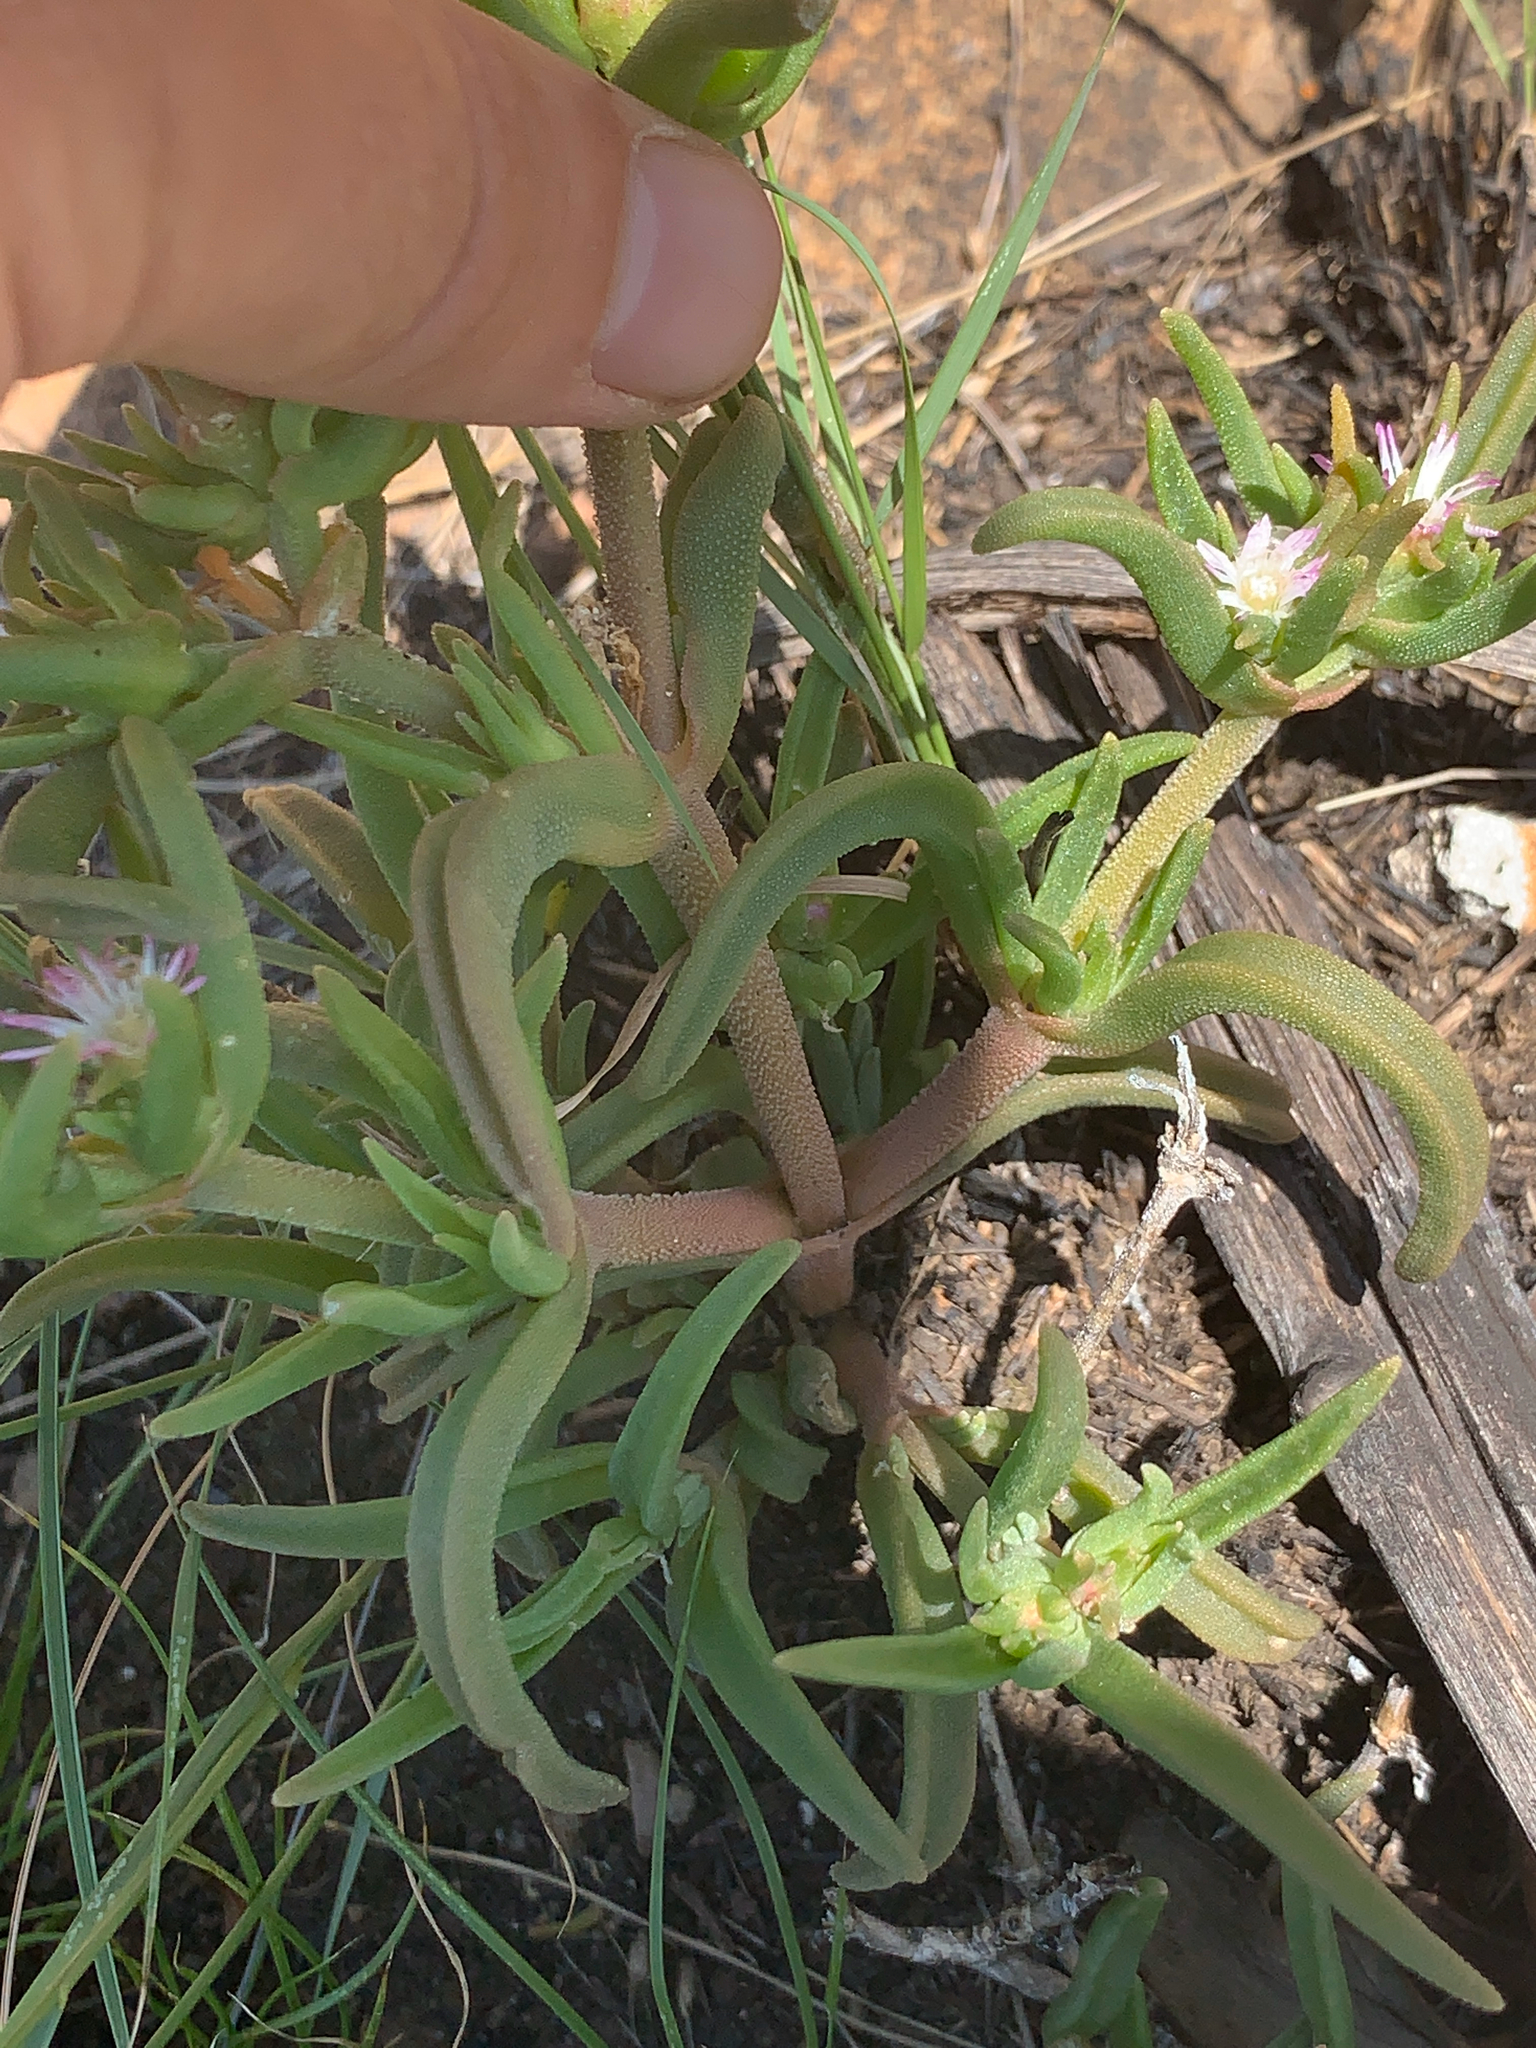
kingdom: Plantae
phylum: Tracheophyta
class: Magnoliopsida
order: Caryophyllales
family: Aizoaceae
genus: Delosperma
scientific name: Delosperma herbeum
